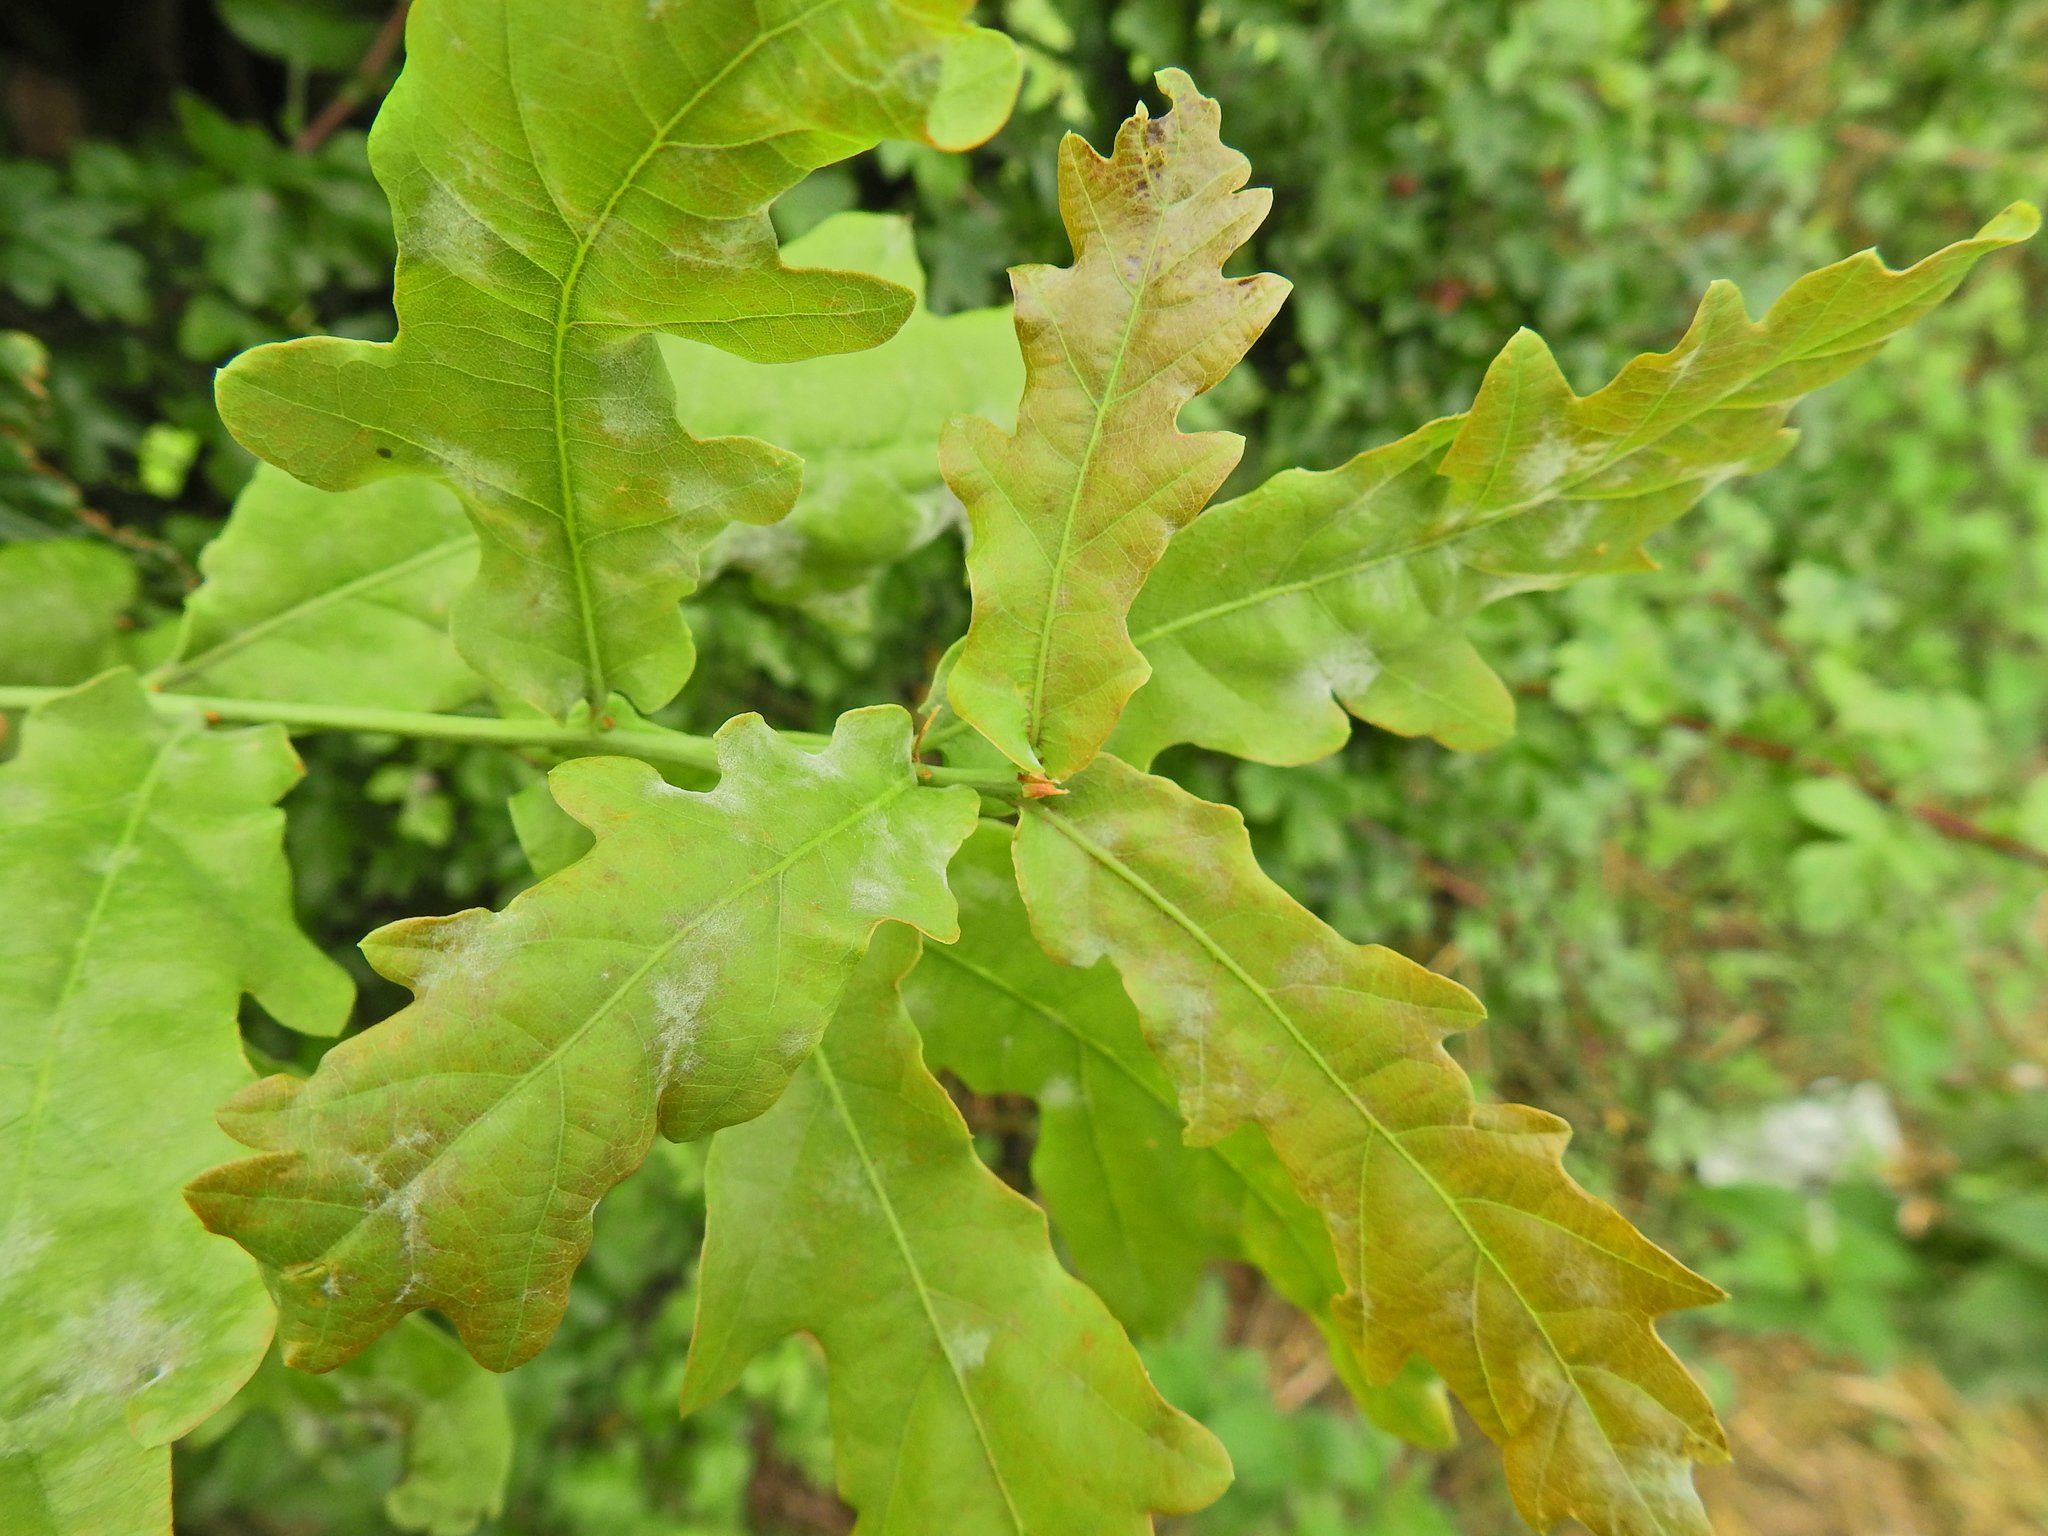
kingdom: Fungi
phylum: Ascomycota
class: Leotiomycetes
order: Helotiales
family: Erysiphaceae
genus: Erysiphe
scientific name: Erysiphe alphitoides
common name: Oak mildew
